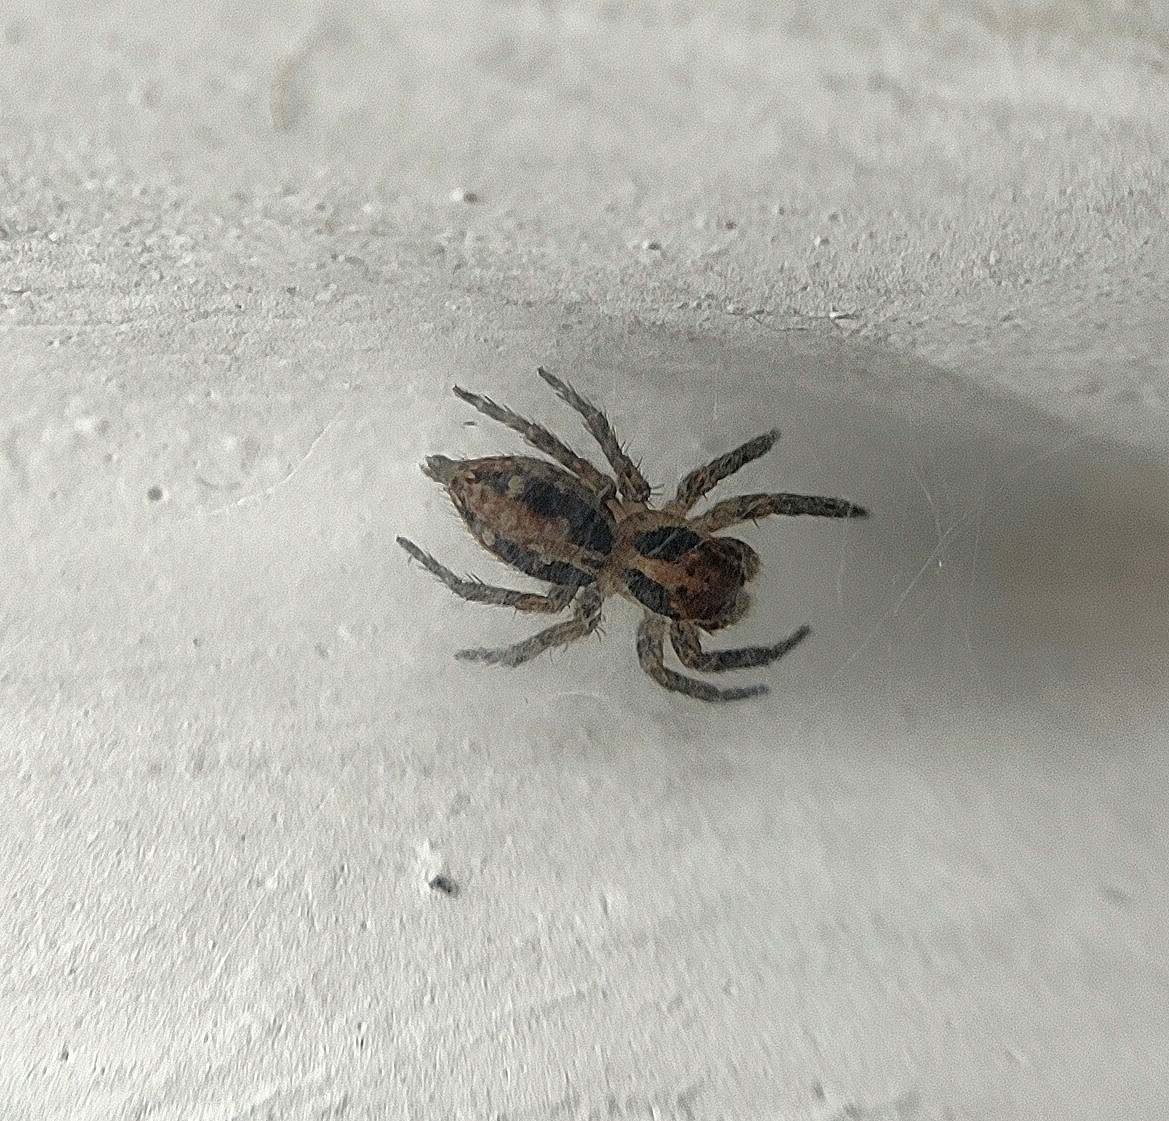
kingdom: Animalia
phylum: Arthropoda
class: Arachnida
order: Araneae
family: Salticidae
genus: Plexippus
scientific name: Plexippus paykulli
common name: Pantropical jumper
